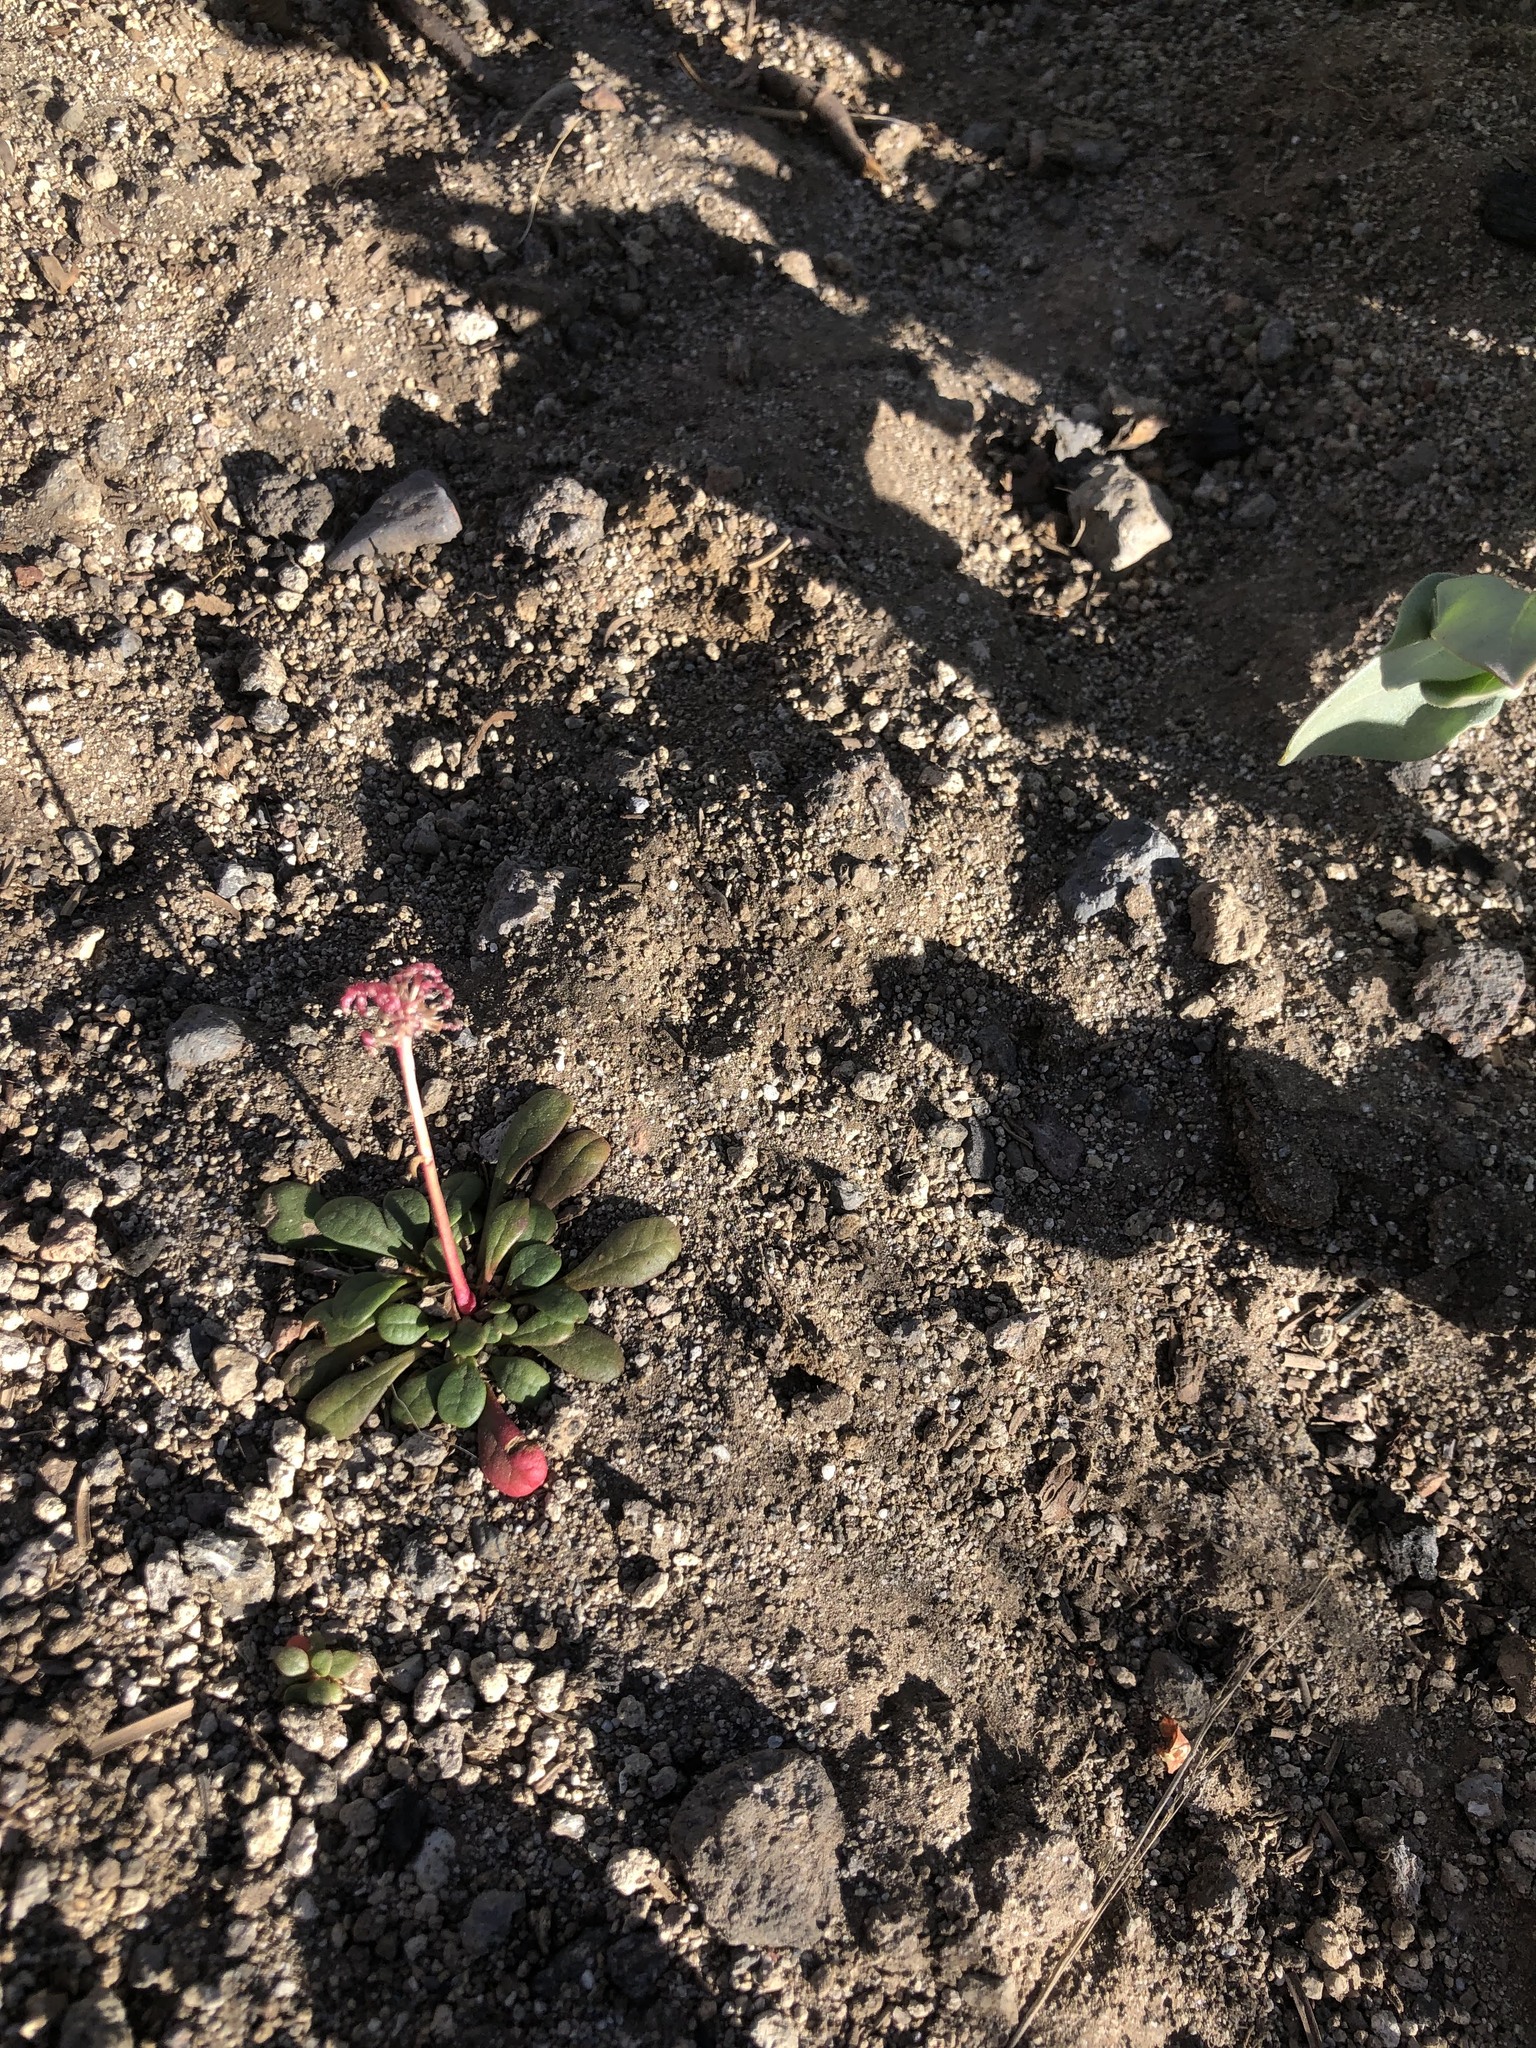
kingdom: Plantae
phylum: Tracheophyta
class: Magnoliopsida
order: Caryophyllales
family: Montiaceae
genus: Calyptridium
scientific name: Calyptridium umbellatum
